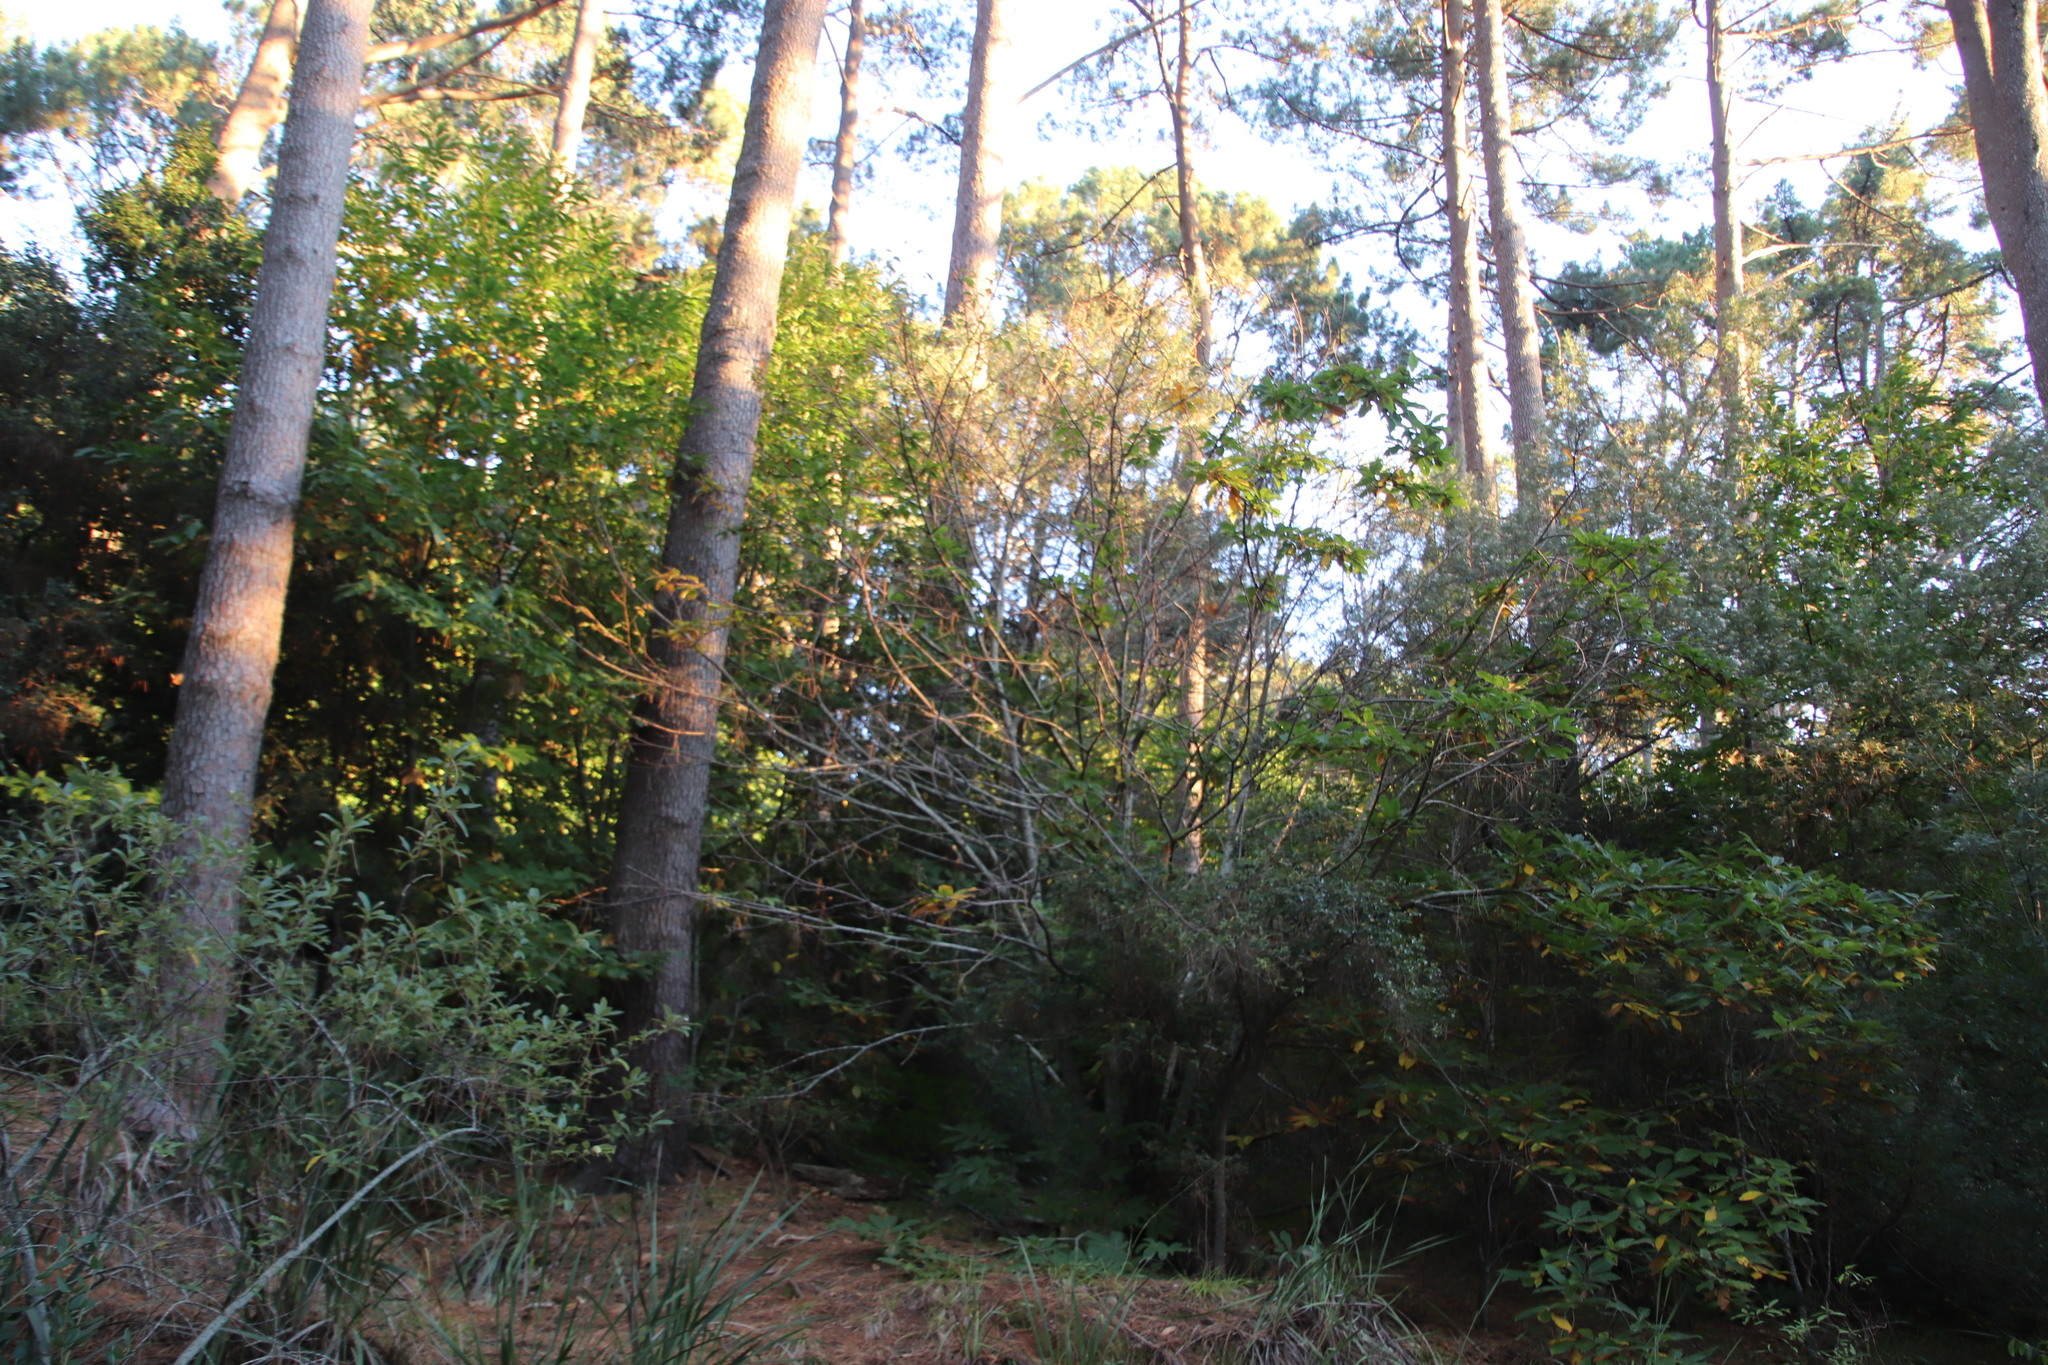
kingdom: Plantae
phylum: Tracheophyta
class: Magnoliopsida
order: Fagales
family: Fagaceae
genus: Castanea
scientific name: Castanea sativa
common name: Sweet chestnut
